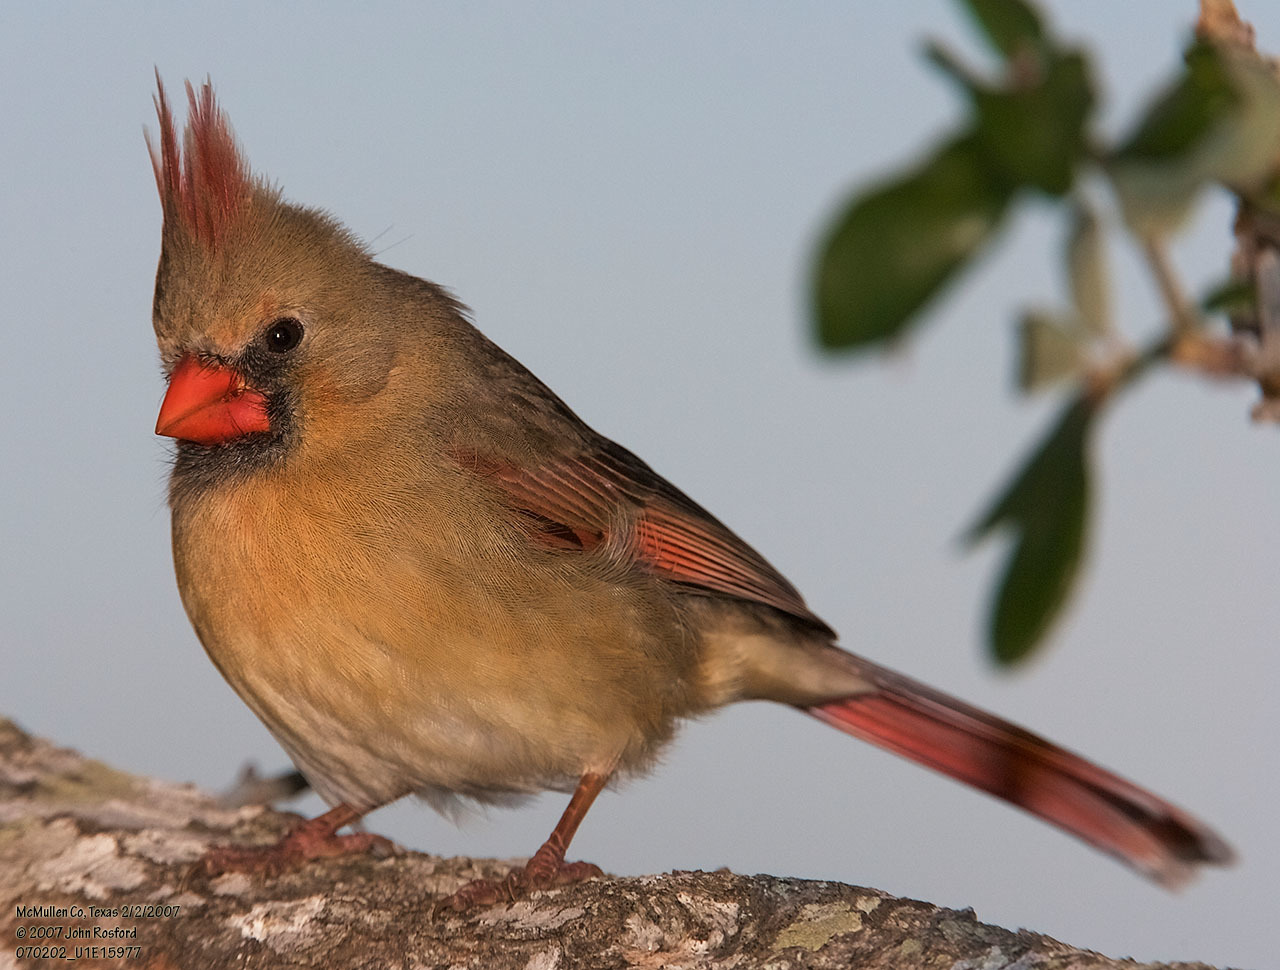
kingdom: Animalia
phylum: Chordata
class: Aves
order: Passeriformes
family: Cardinalidae
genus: Cardinalis
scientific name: Cardinalis cardinalis
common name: Northern cardinal
